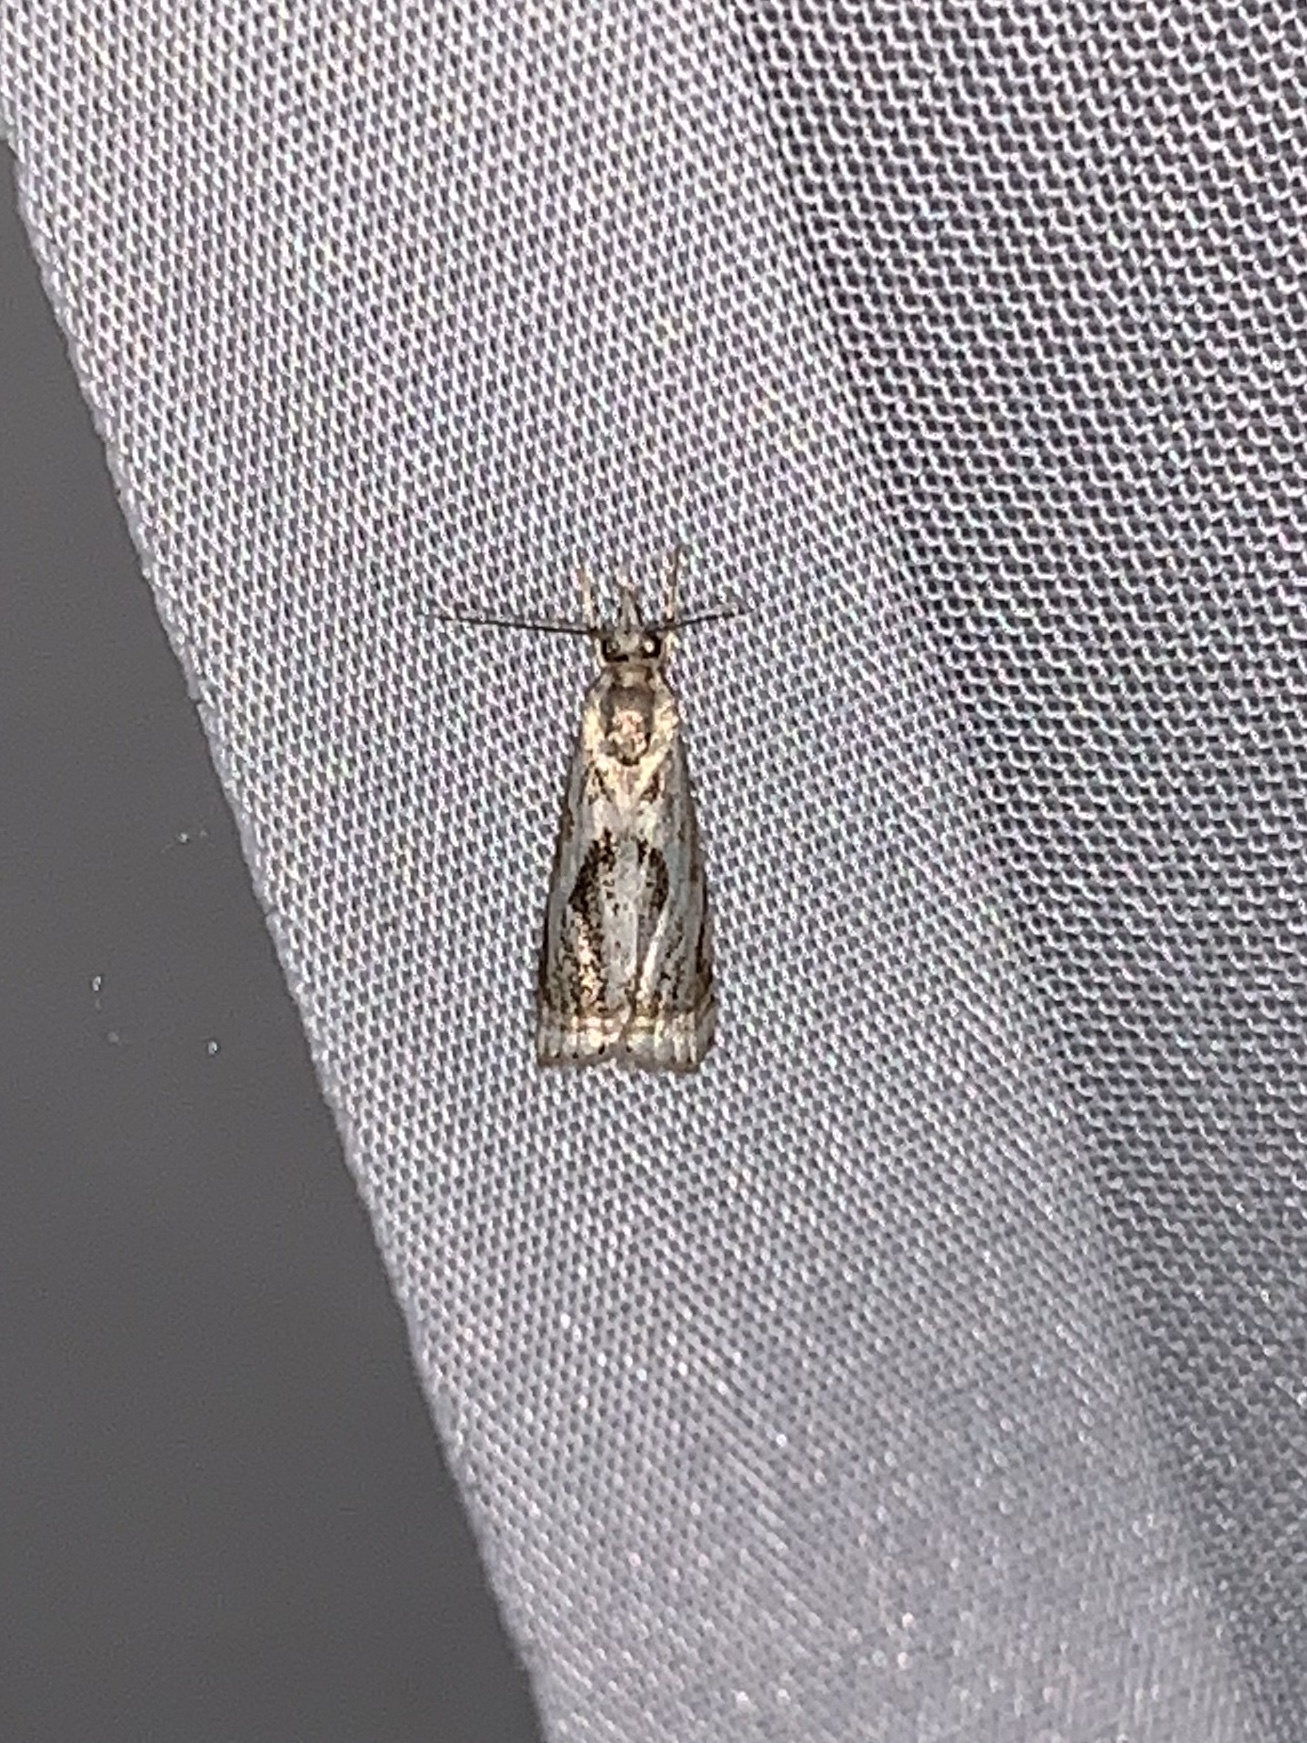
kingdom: Animalia
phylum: Arthropoda
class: Insecta
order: Lepidoptera
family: Crambidae
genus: Microcrambus
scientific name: Microcrambus elegans
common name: Elegant grass-veneer
